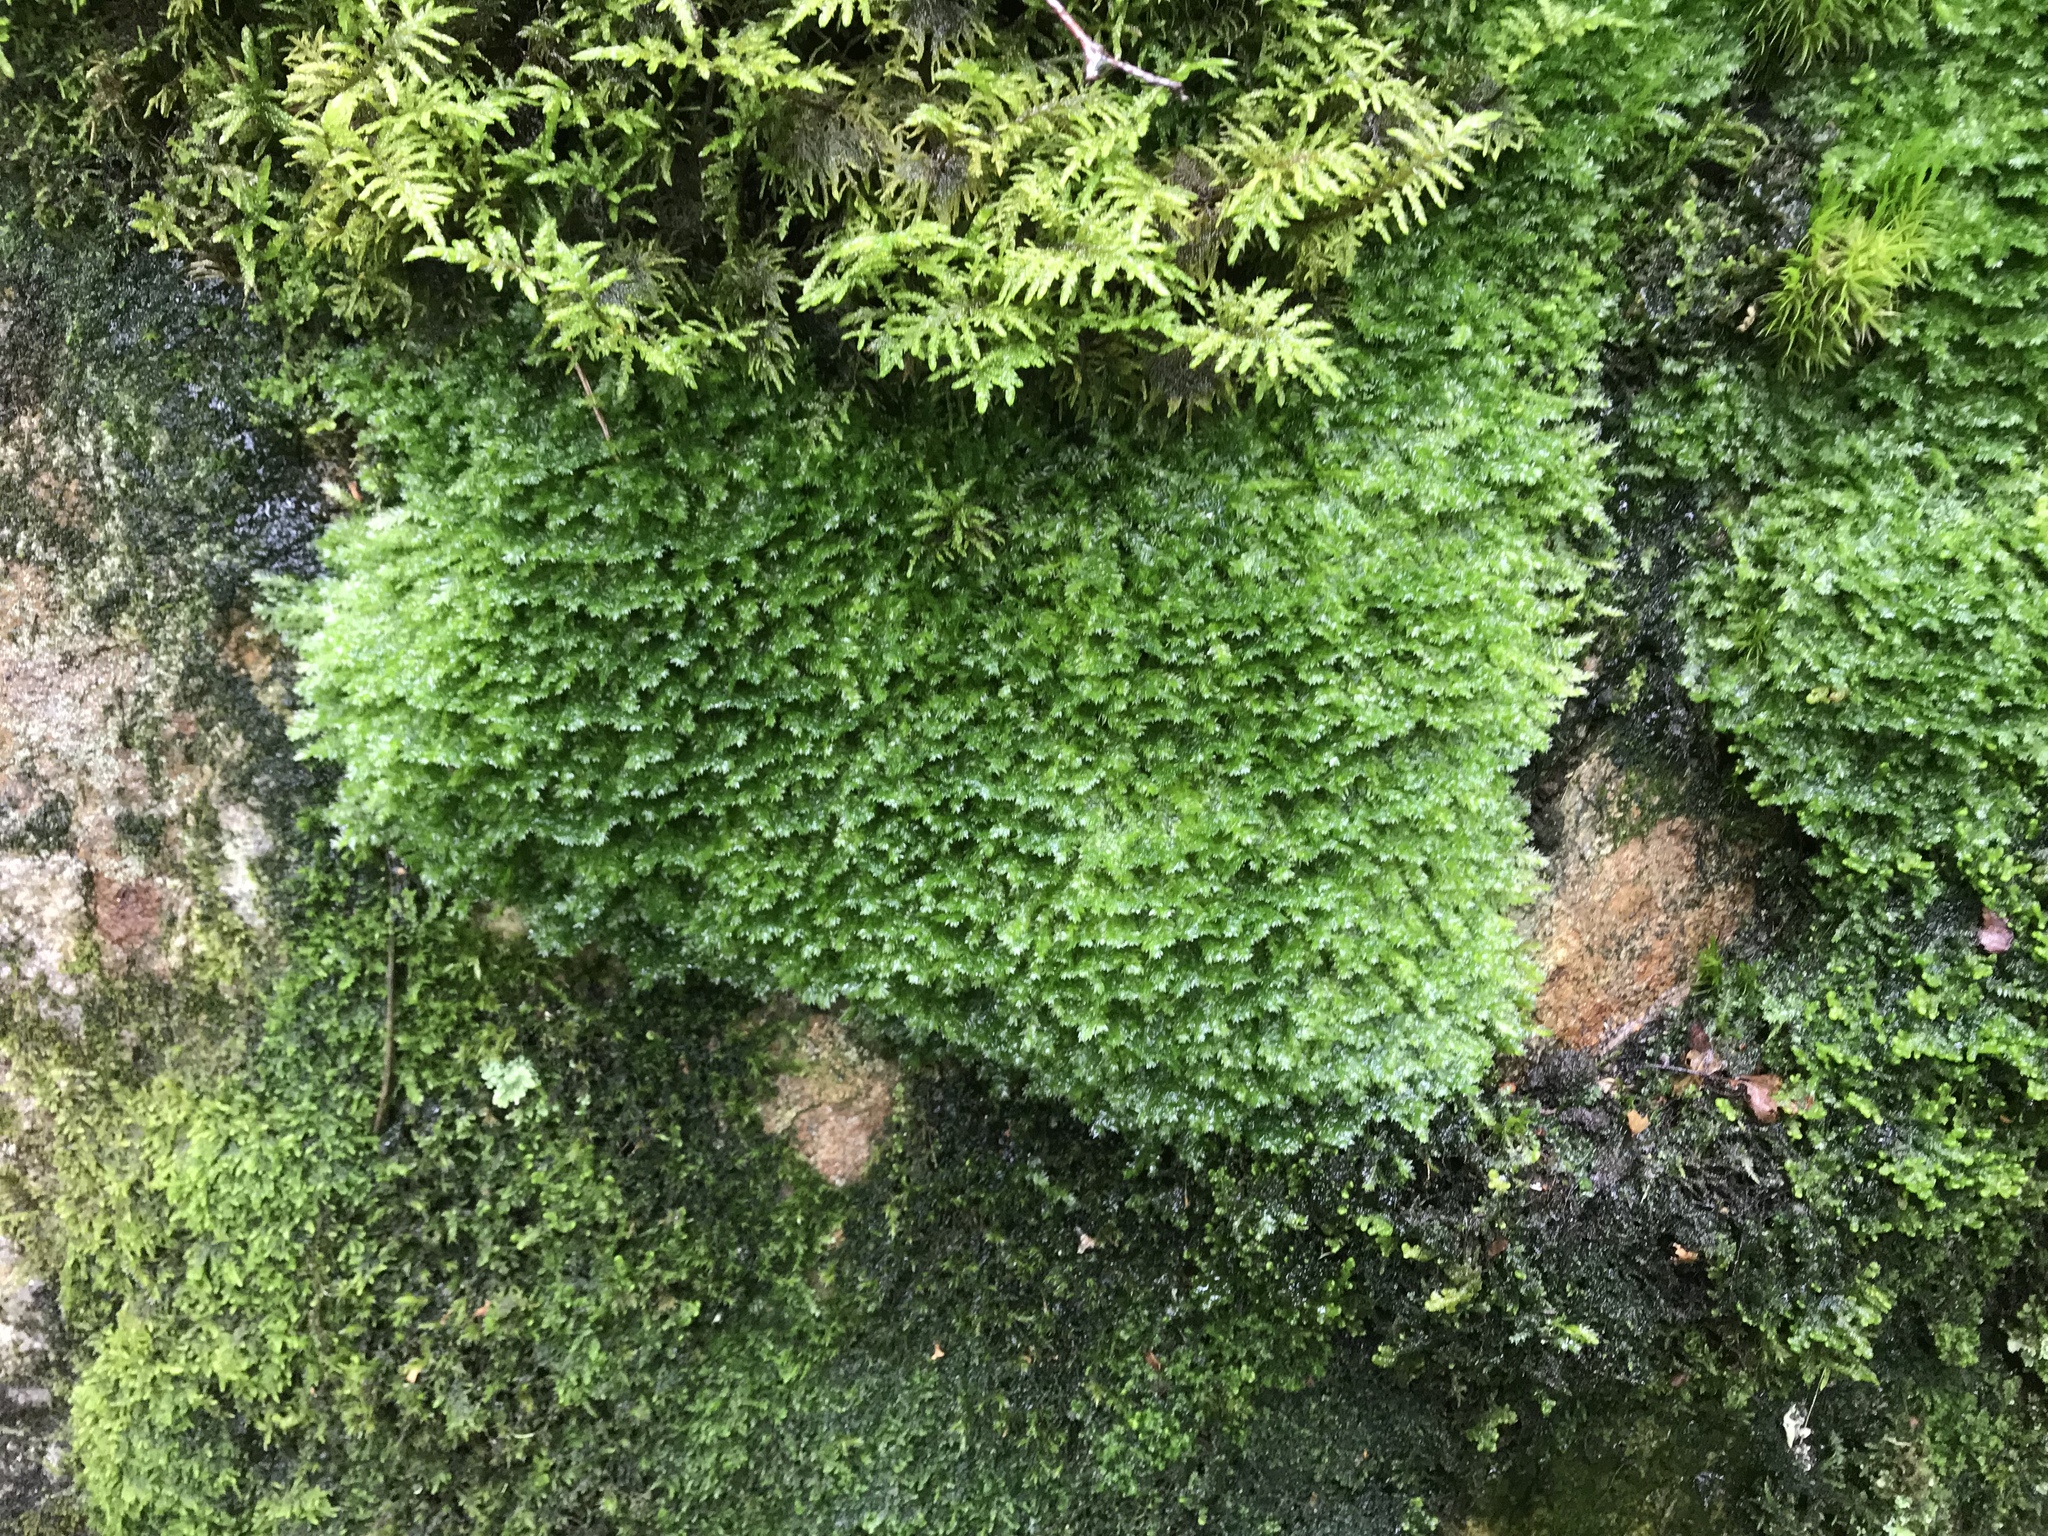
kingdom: Plantae
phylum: Bryophyta
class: Bryopsida
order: Hypnales
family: Plagiotheciaceae
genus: Plagiothecium
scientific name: Plagiothecium denticulatum
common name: Dented silk moss
